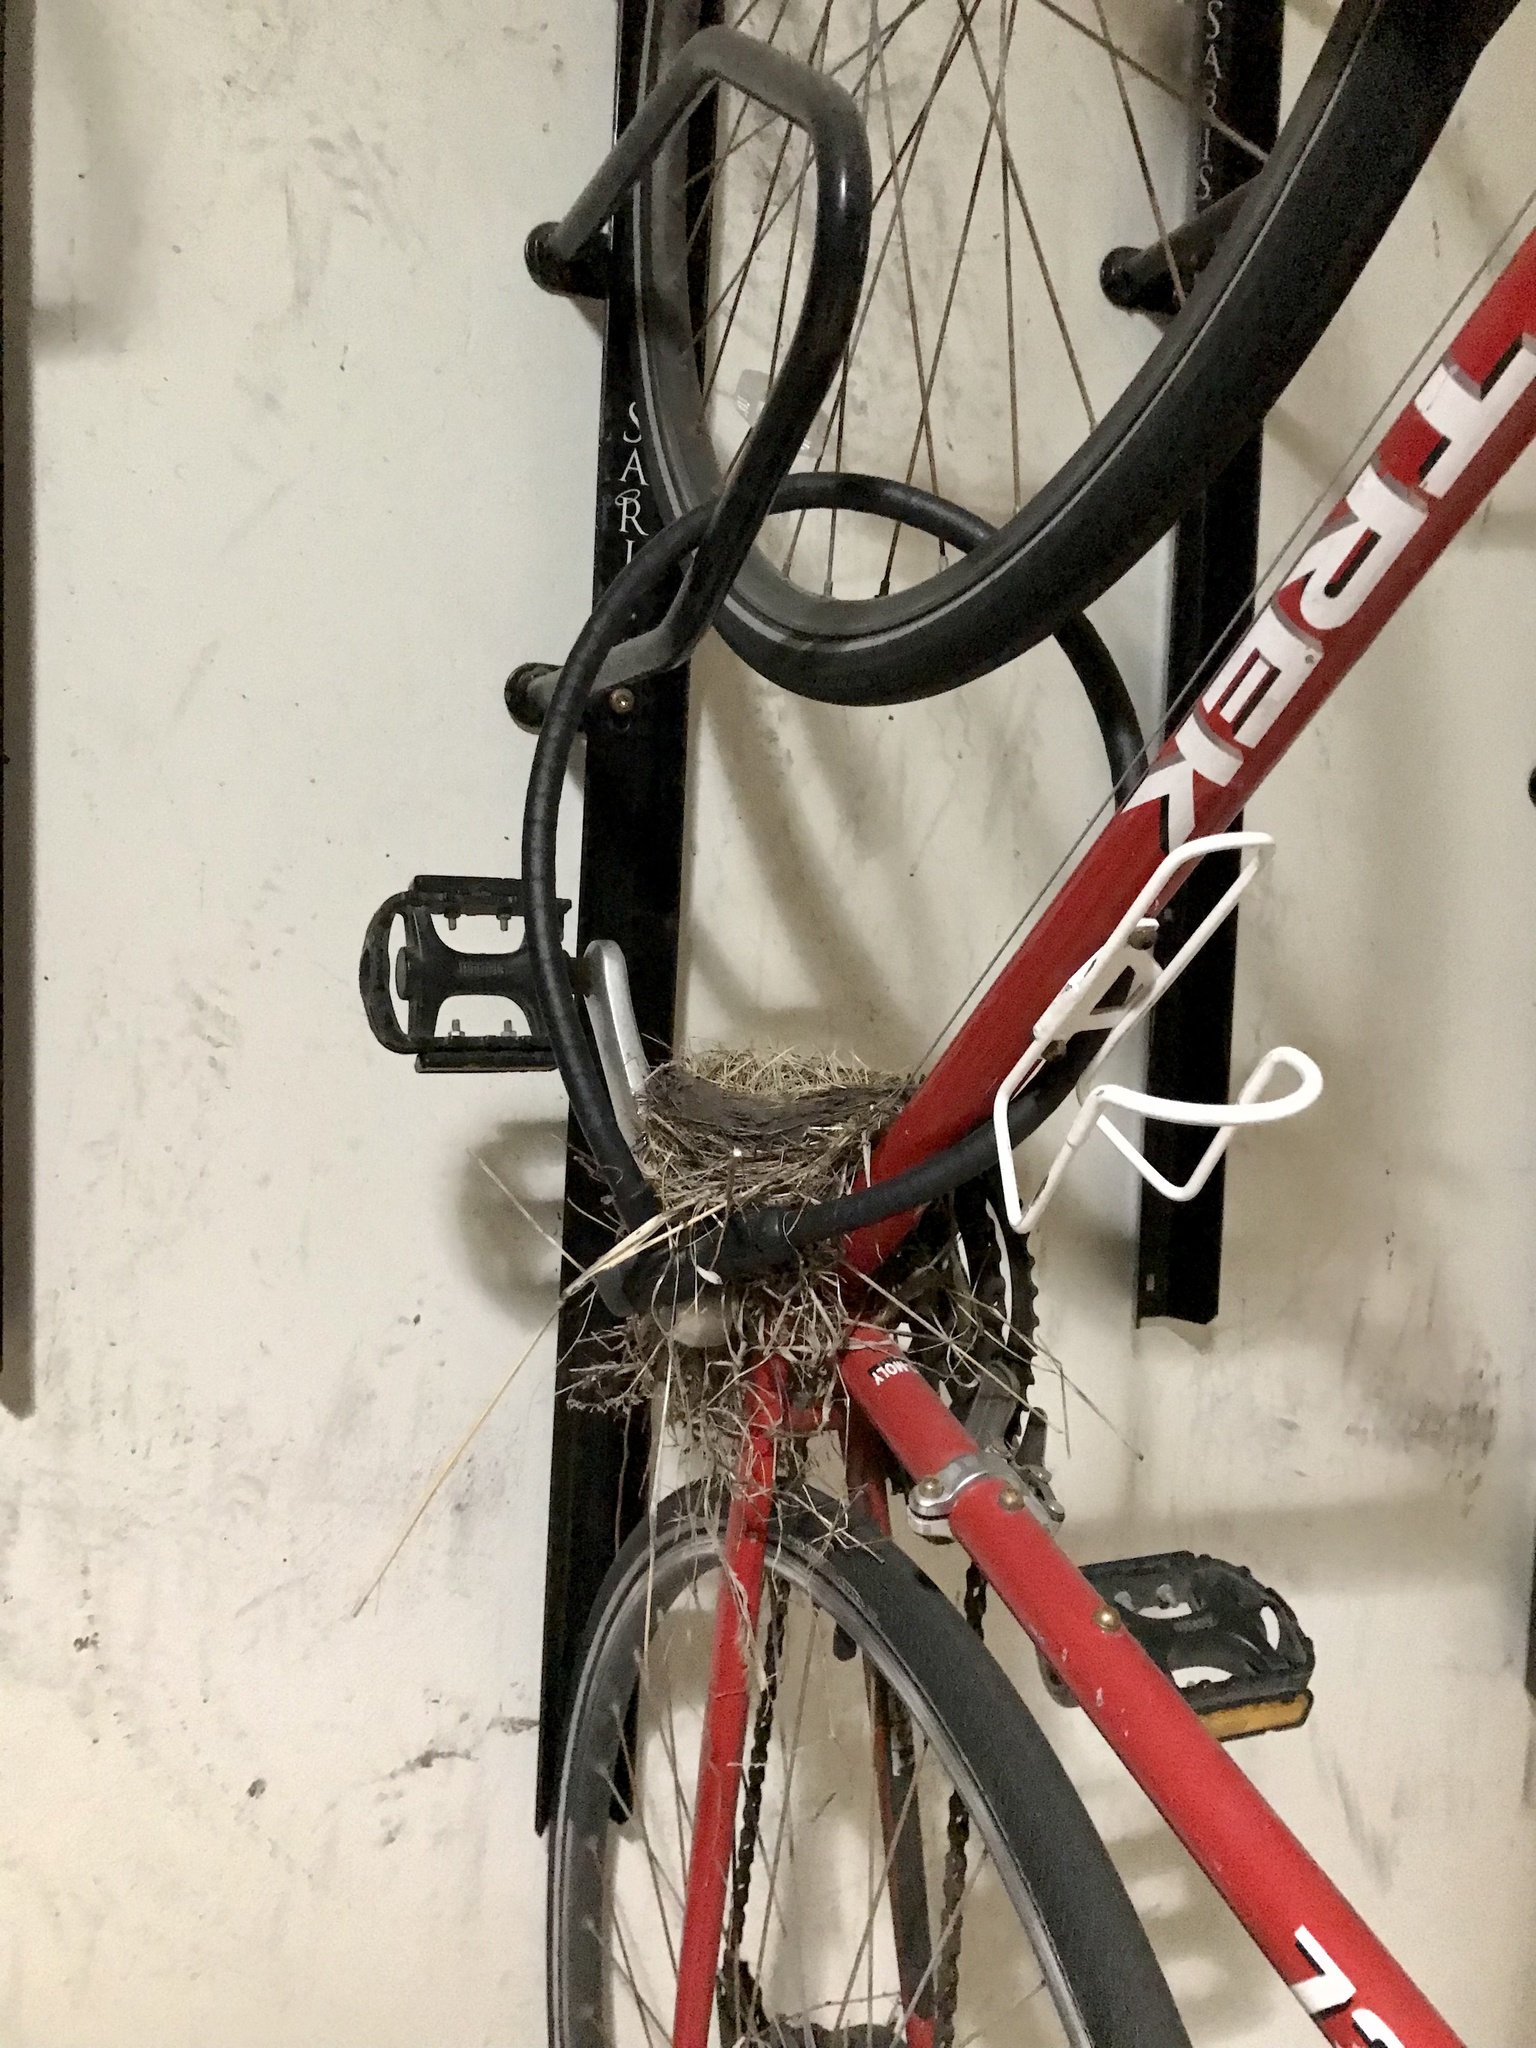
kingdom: Animalia
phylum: Chordata
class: Aves
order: Passeriformes
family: Turdidae
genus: Turdus
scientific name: Turdus migratorius
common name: American robin
